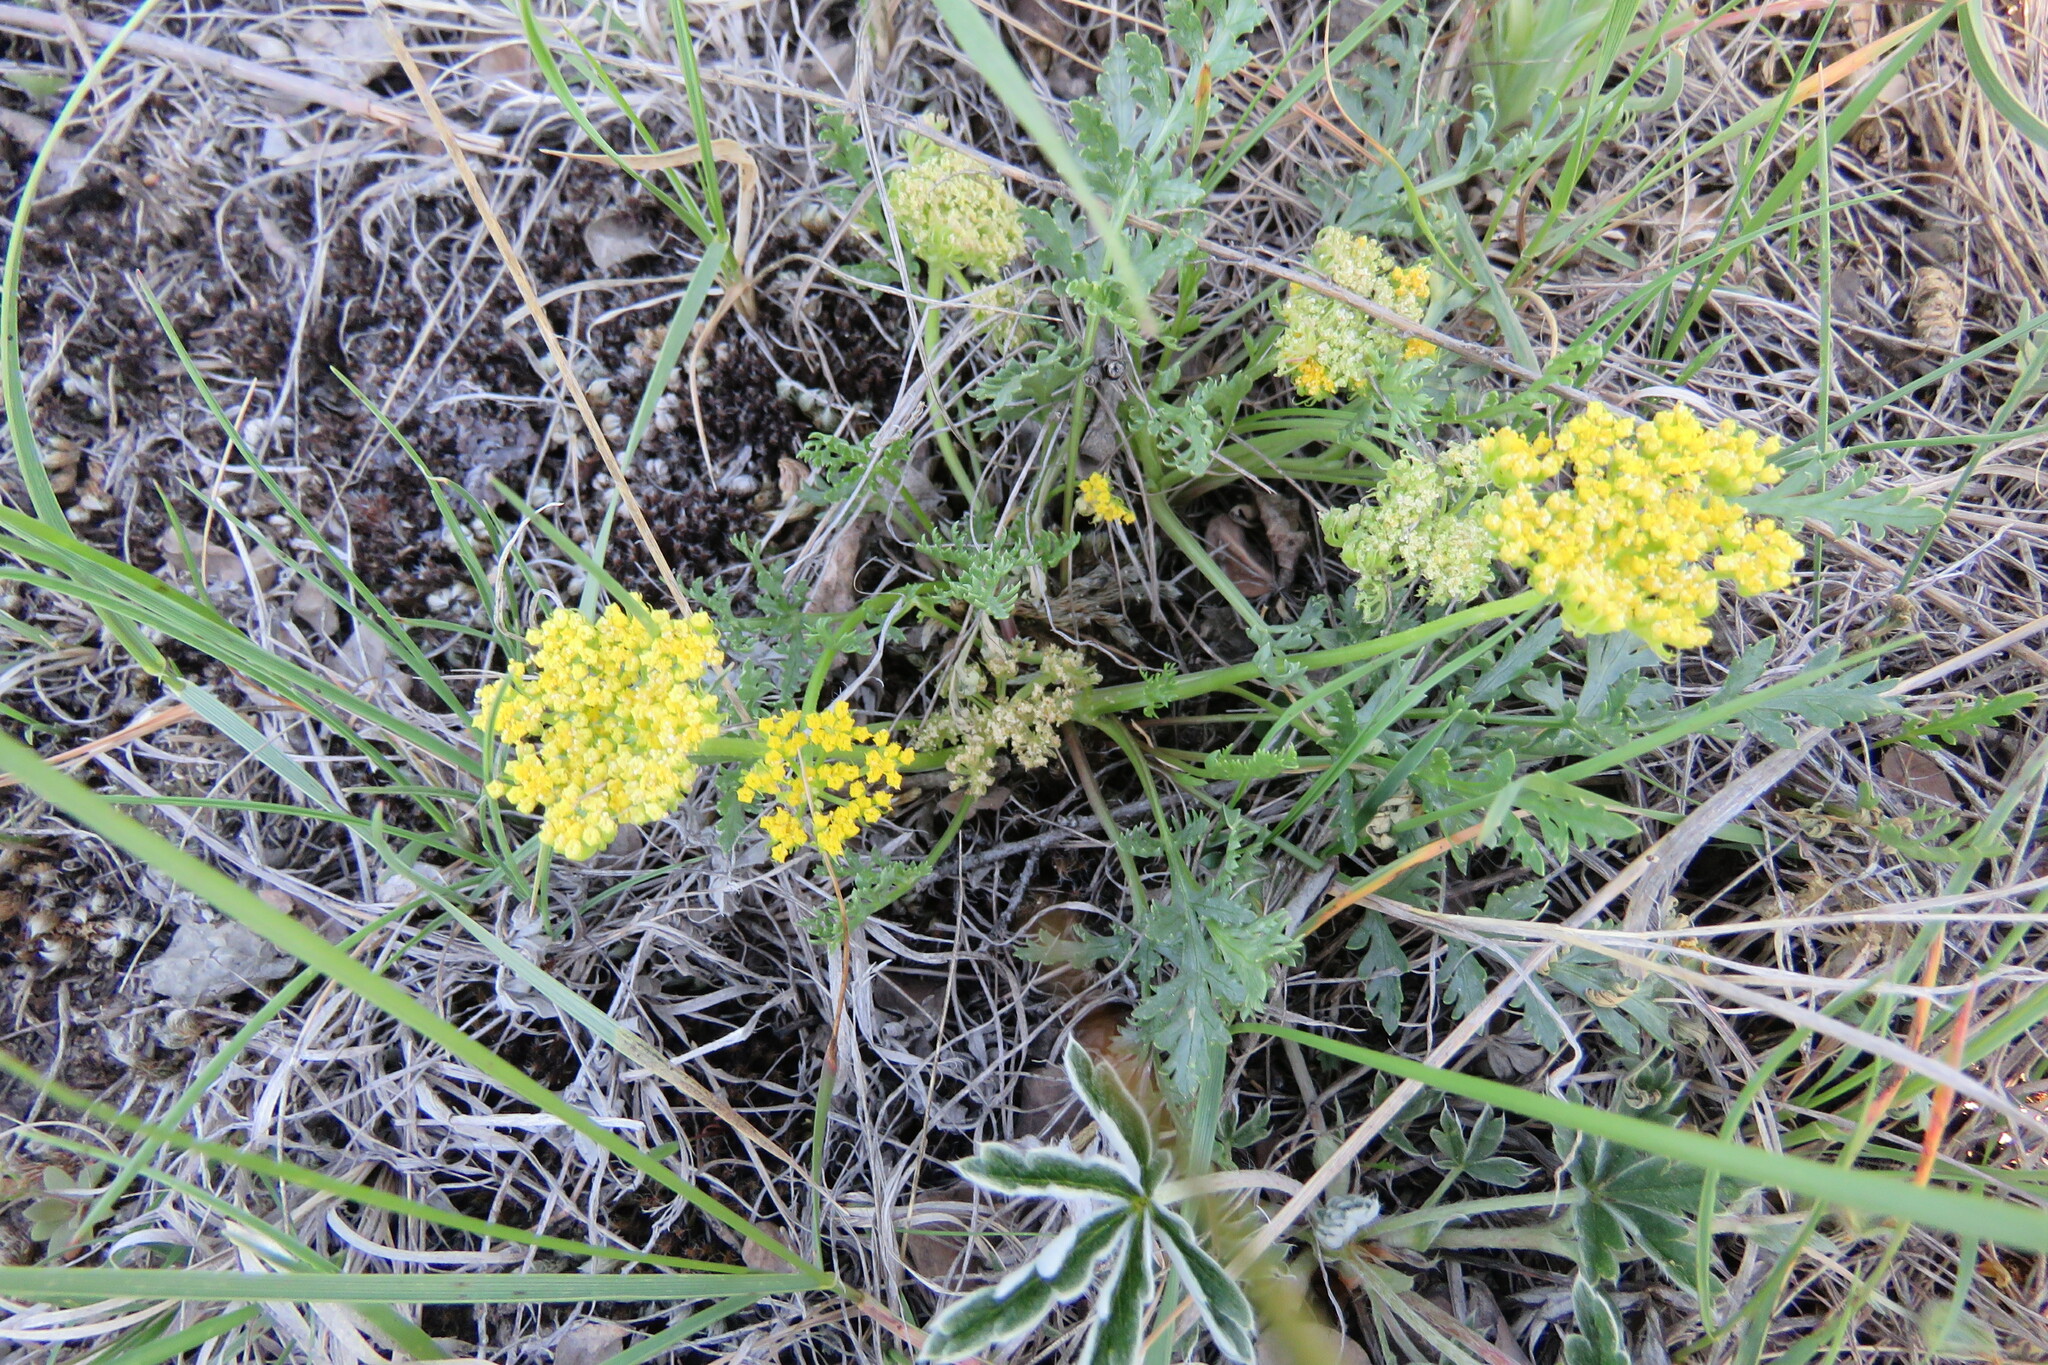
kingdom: Plantae
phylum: Tracheophyta
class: Magnoliopsida
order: Apiales
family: Apiaceae
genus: Musineon
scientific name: Musineon divaricatum
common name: Plains musineon
